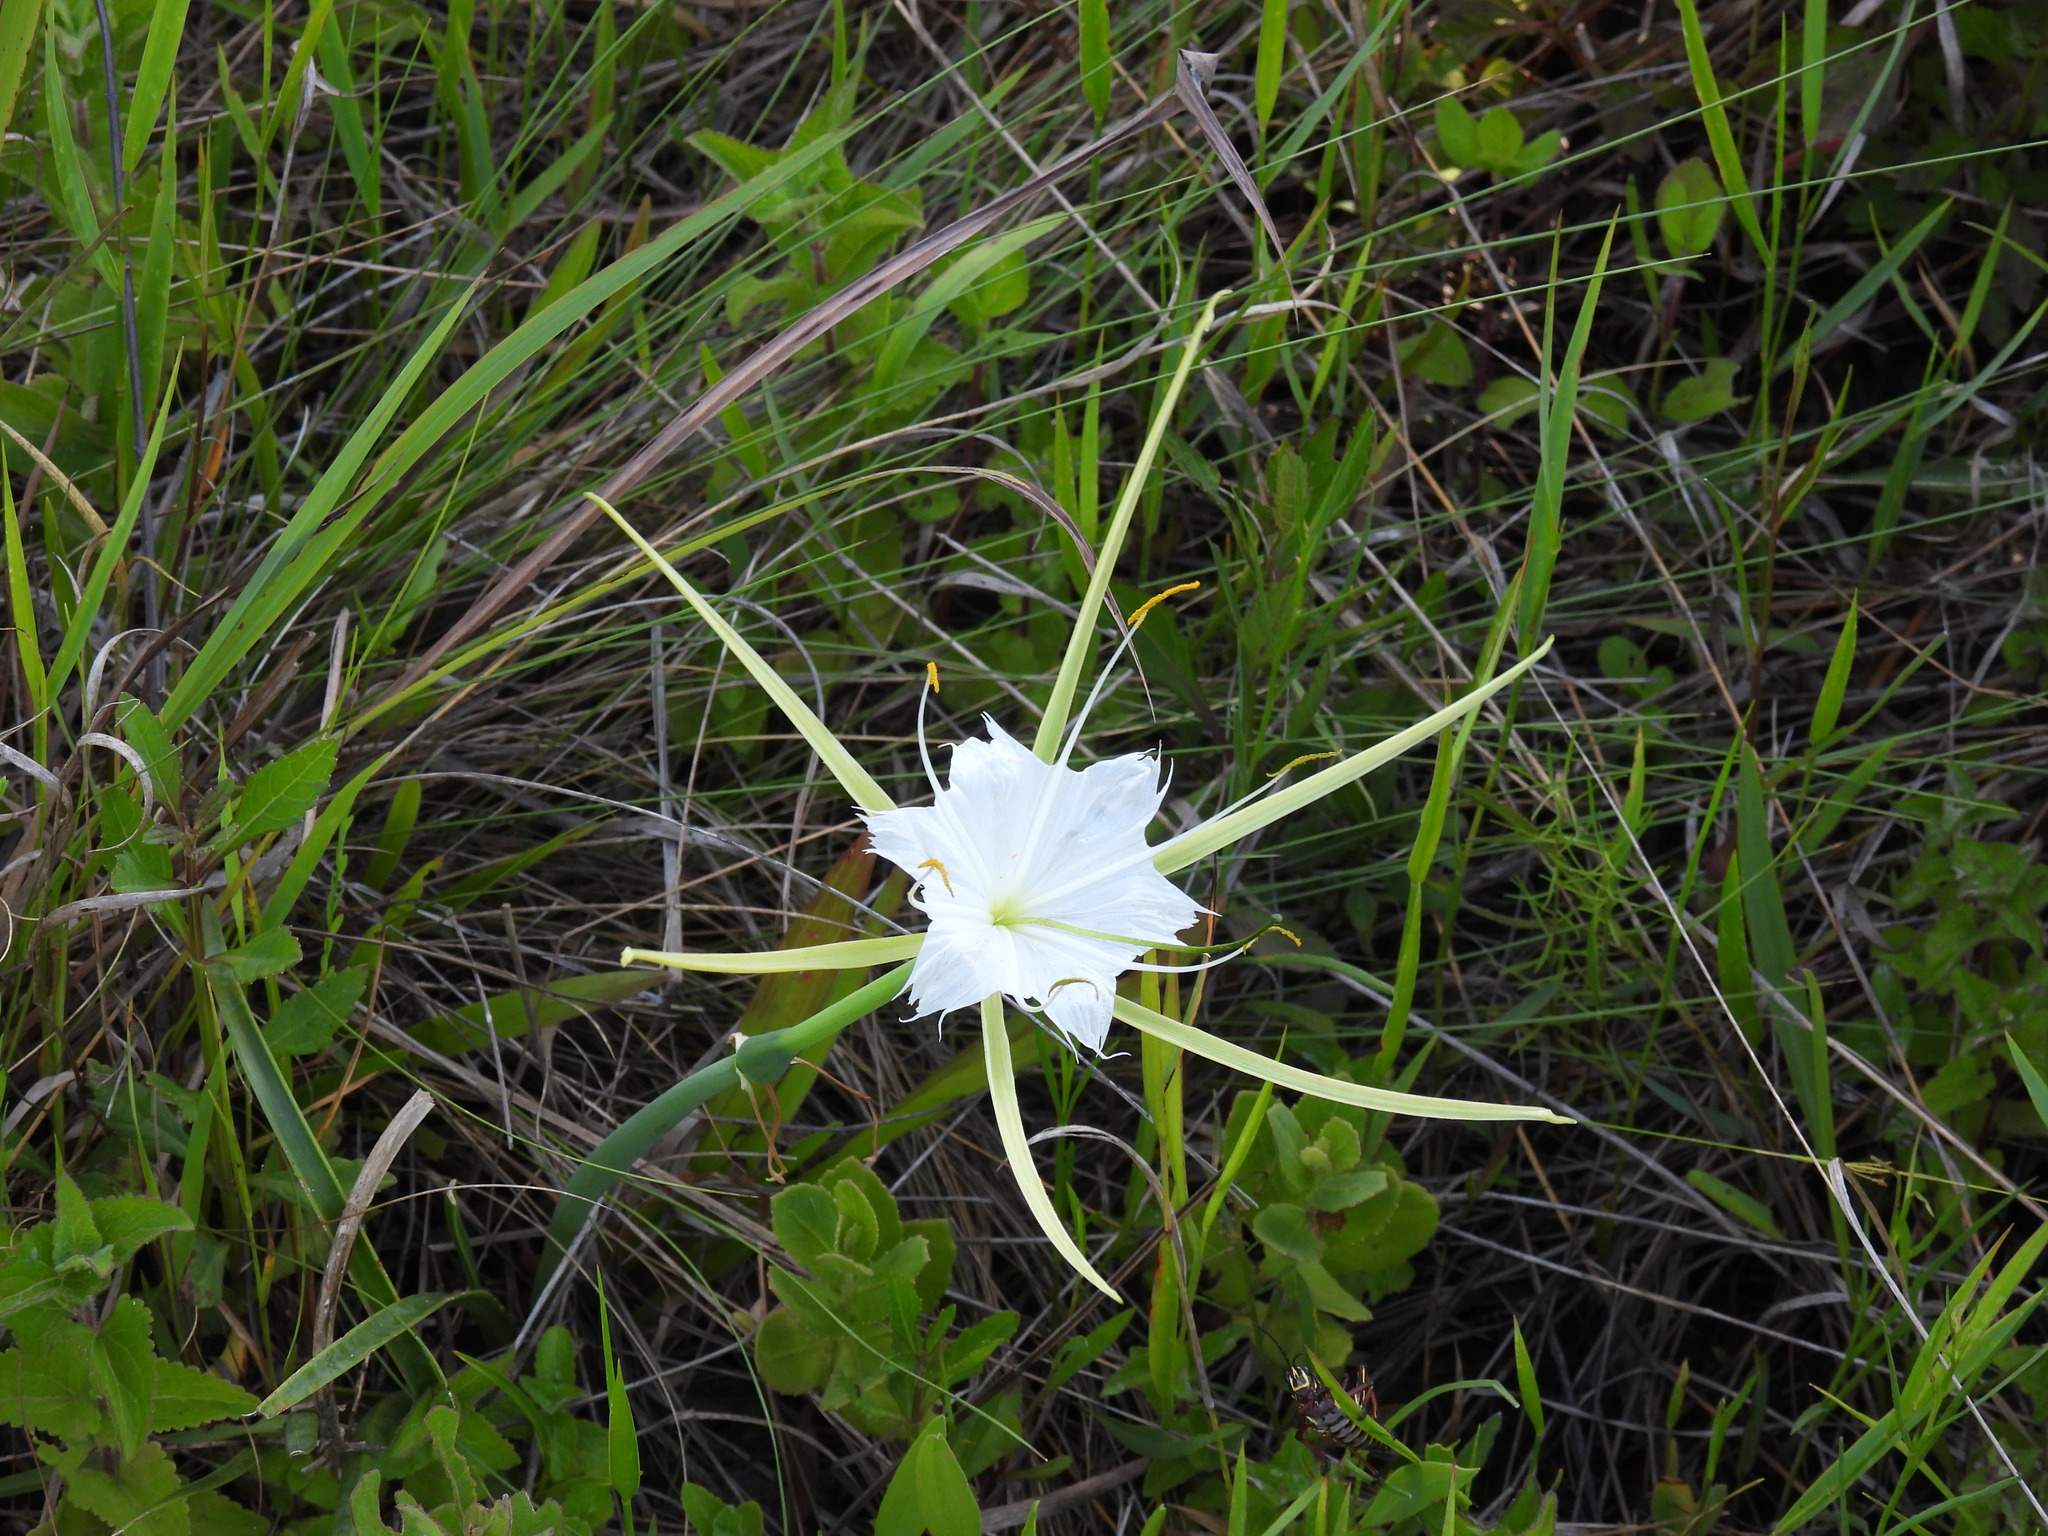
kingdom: Plantae
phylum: Tracheophyta
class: Liliopsida
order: Asparagales
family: Amaryllidaceae
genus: Hymenocallis
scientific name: Hymenocallis palmeri
